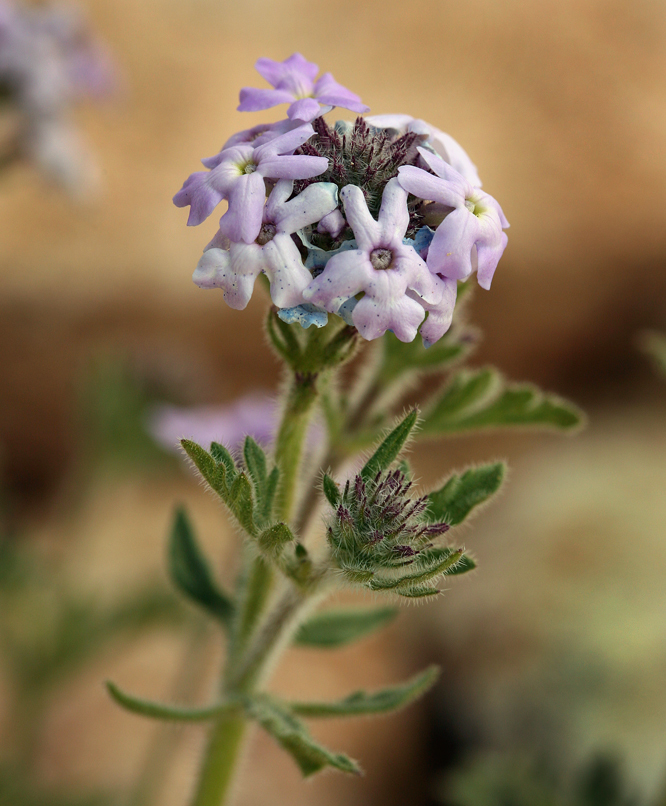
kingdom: Plantae
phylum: Tracheophyta
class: Magnoliopsida
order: Lamiales
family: Verbenaceae
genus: Verbena
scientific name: Verbena gooddingii
